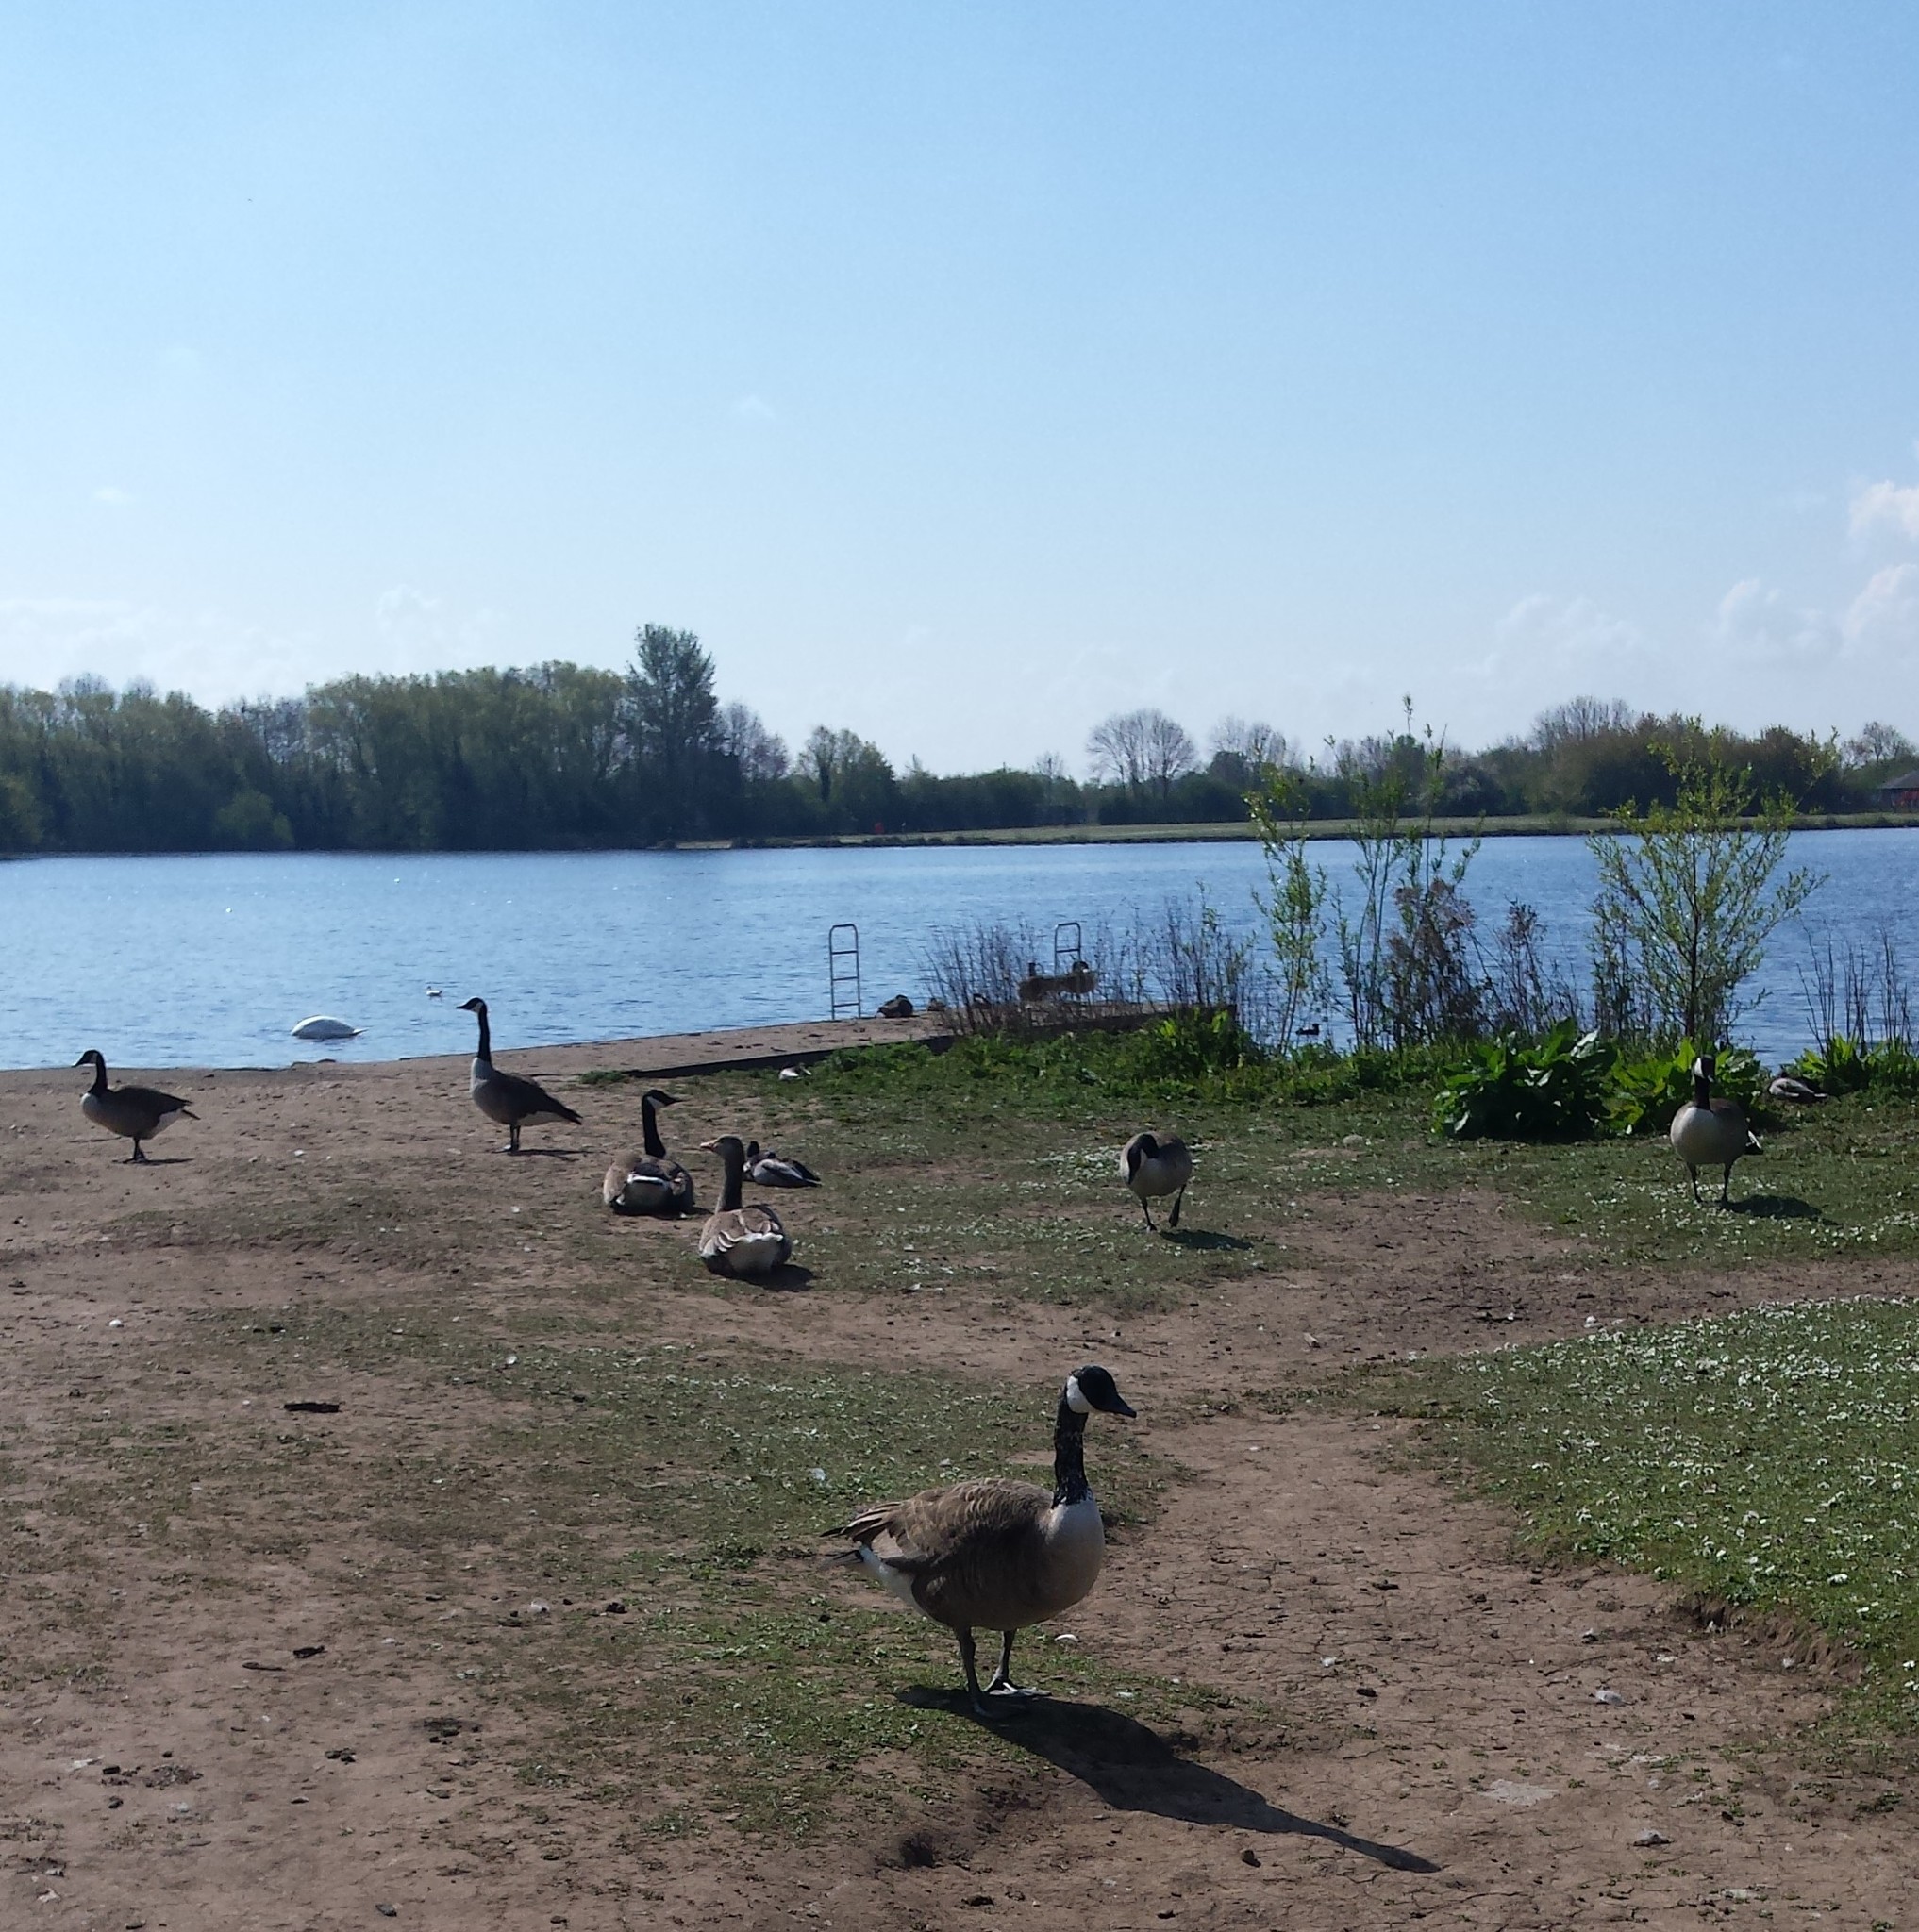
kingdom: Animalia
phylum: Chordata
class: Aves
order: Anseriformes
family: Anatidae
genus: Branta
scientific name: Branta canadensis
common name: Canada goose
